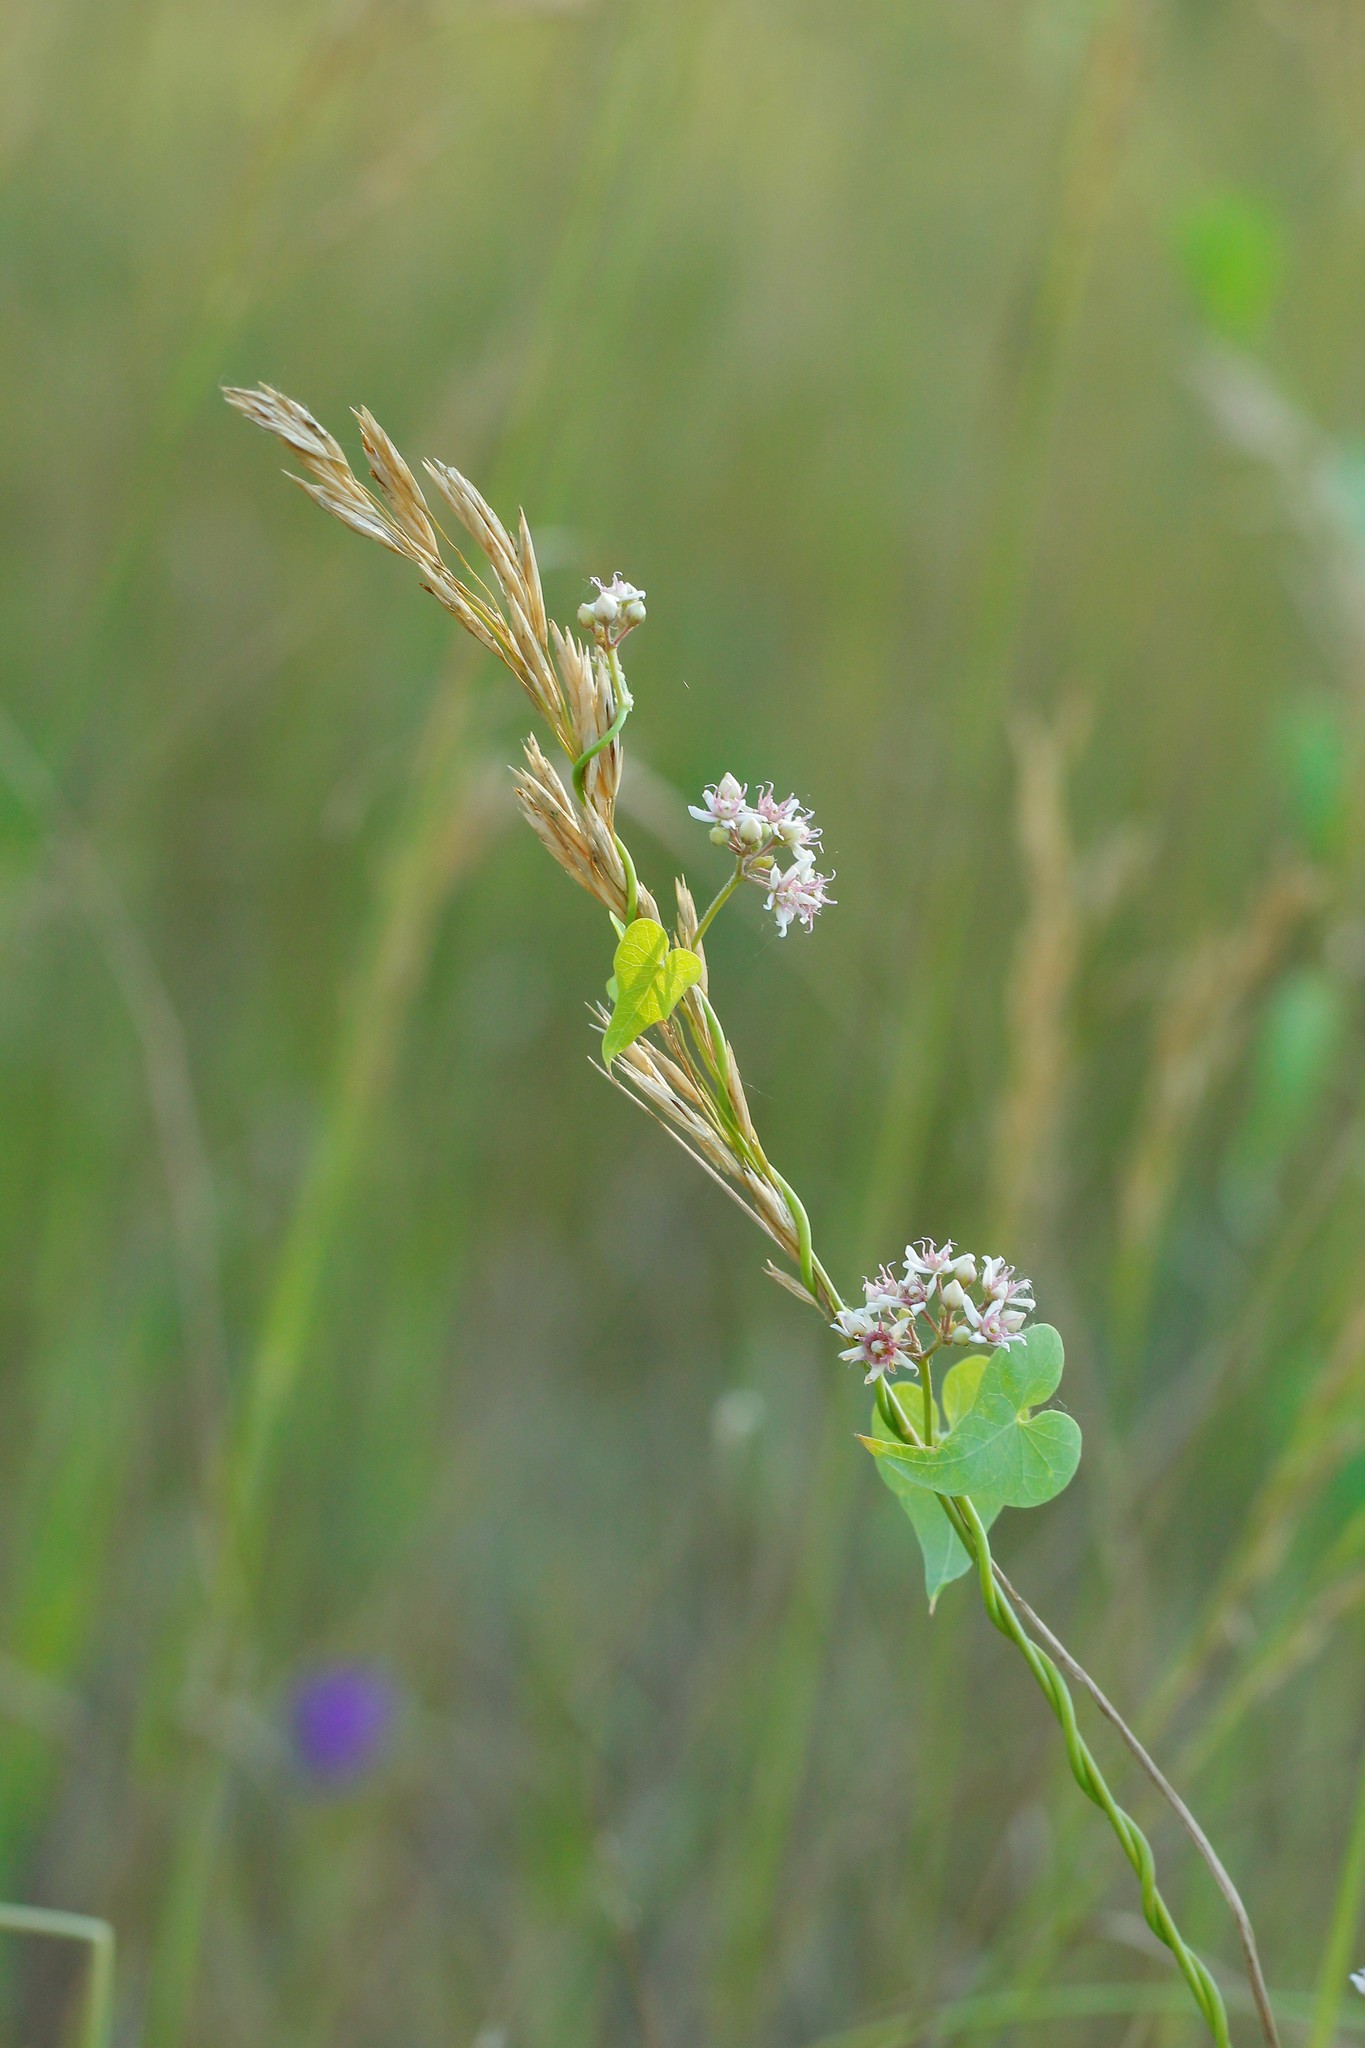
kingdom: Plantae
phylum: Tracheophyta
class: Magnoliopsida
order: Gentianales
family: Apocynaceae
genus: Cynanchum
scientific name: Cynanchum acutum
